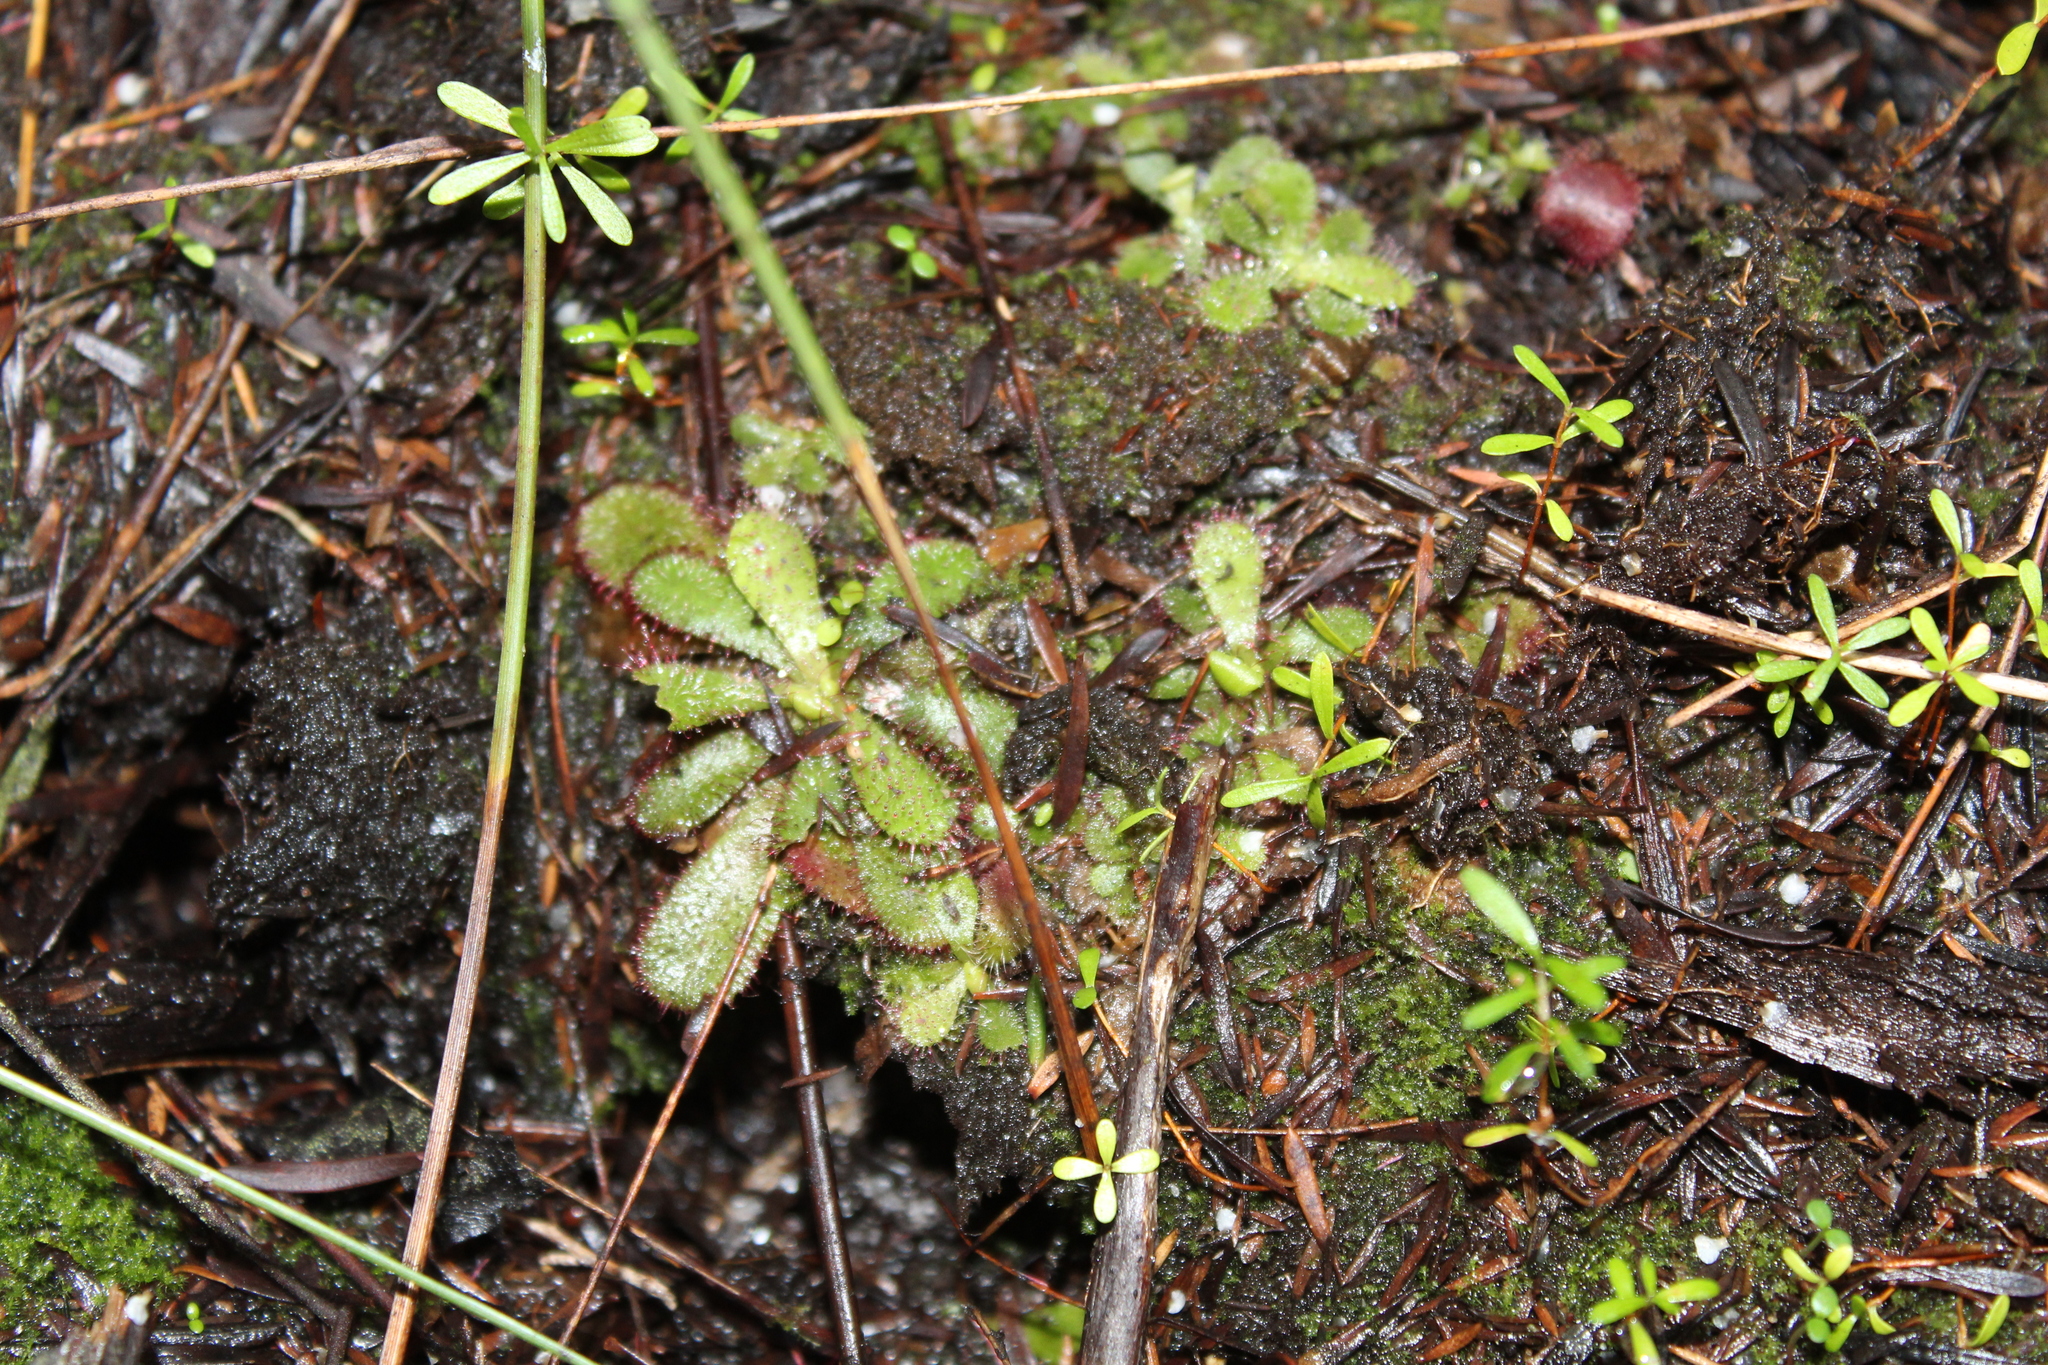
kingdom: Plantae
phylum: Tracheophyta
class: Magnoliopsida
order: Caryophyllales
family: Droseraceae
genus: Drosera
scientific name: Drosera hamiltonii
